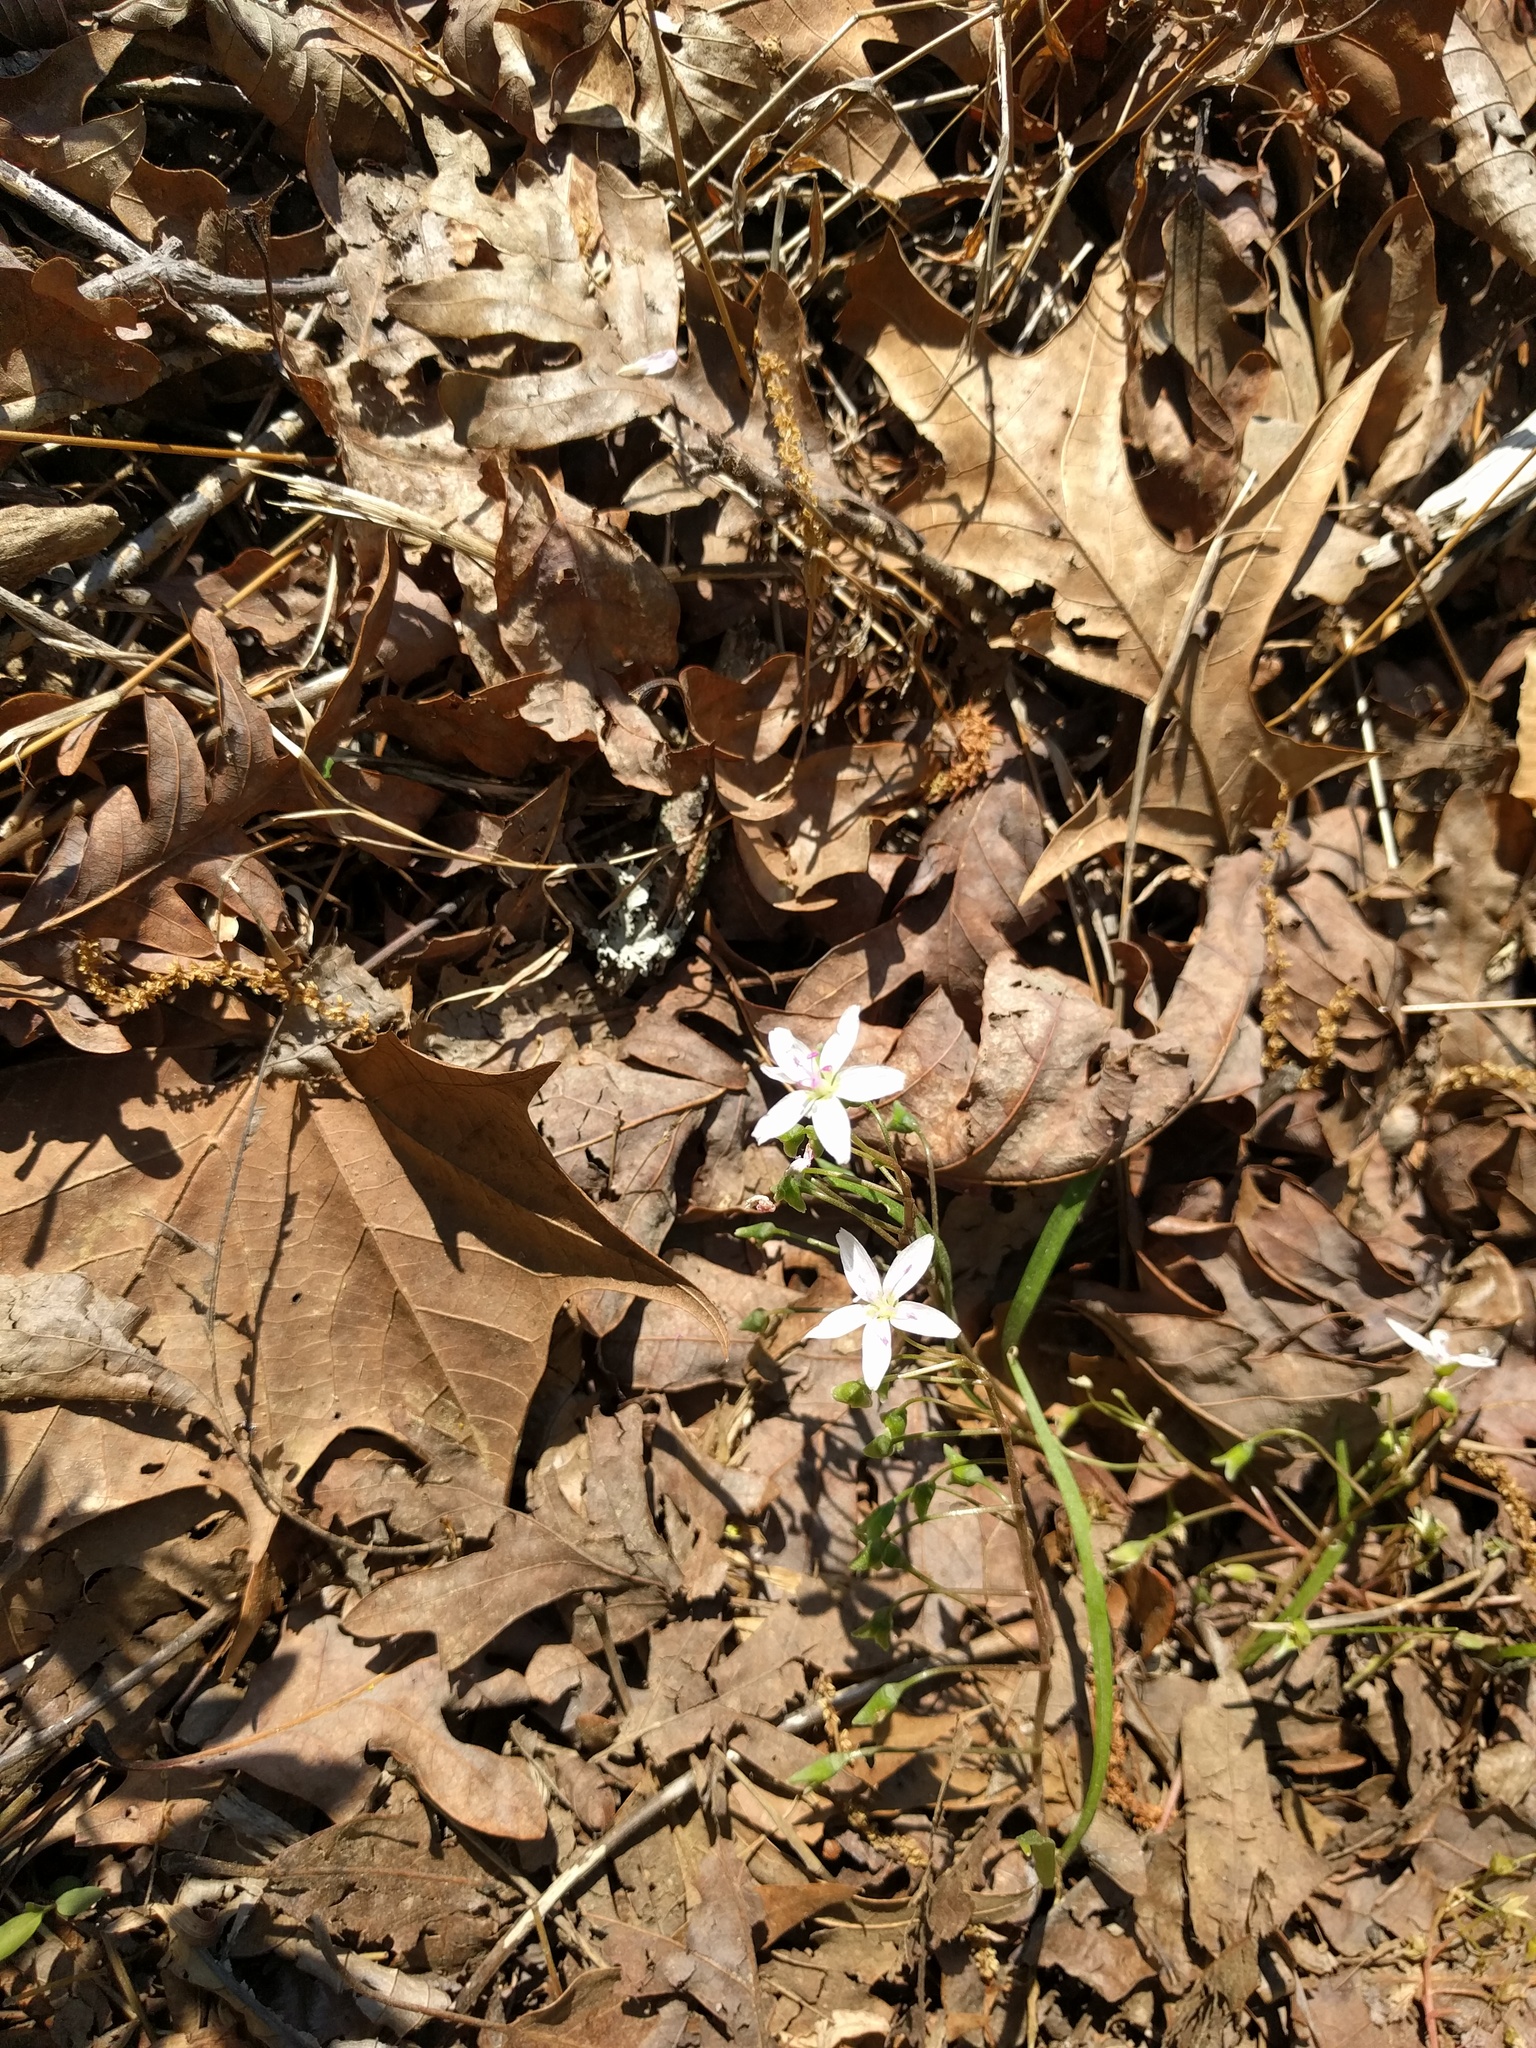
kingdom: Plantae
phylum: Tracheophyta
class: Magnoliopsida
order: Caryophyllales
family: Montiaceae
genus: Claytonia
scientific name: Claytonia virginica
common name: Virginia springbeauty
